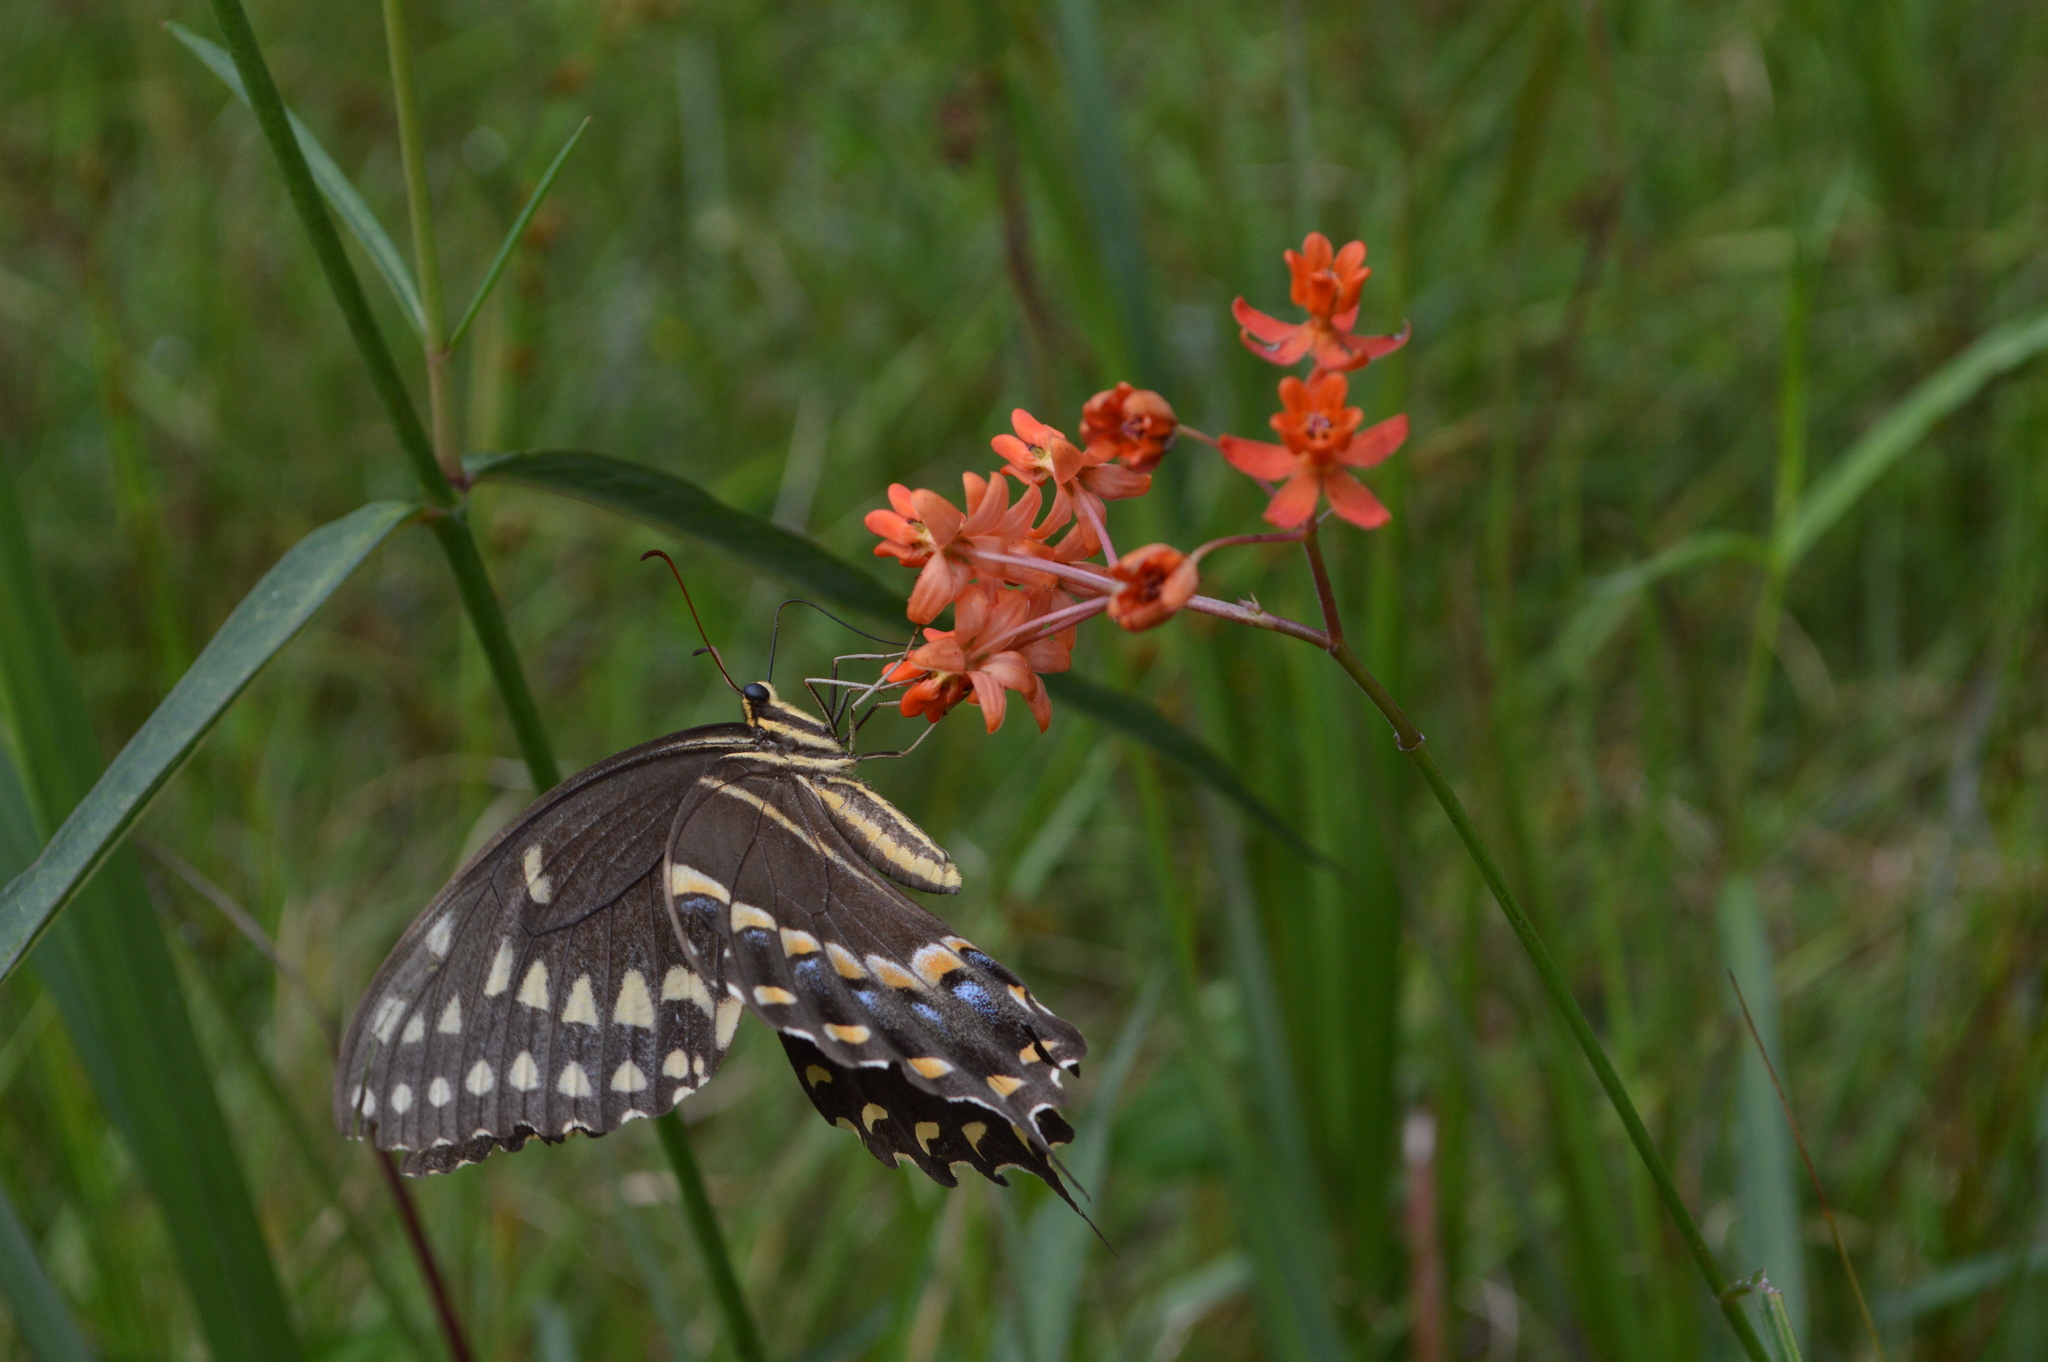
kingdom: Plantae
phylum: Tracheophyta
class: Magnoliopsida
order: Gentianales
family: Apocynaceae
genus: Asclepias
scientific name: Asclepias lanceolata
